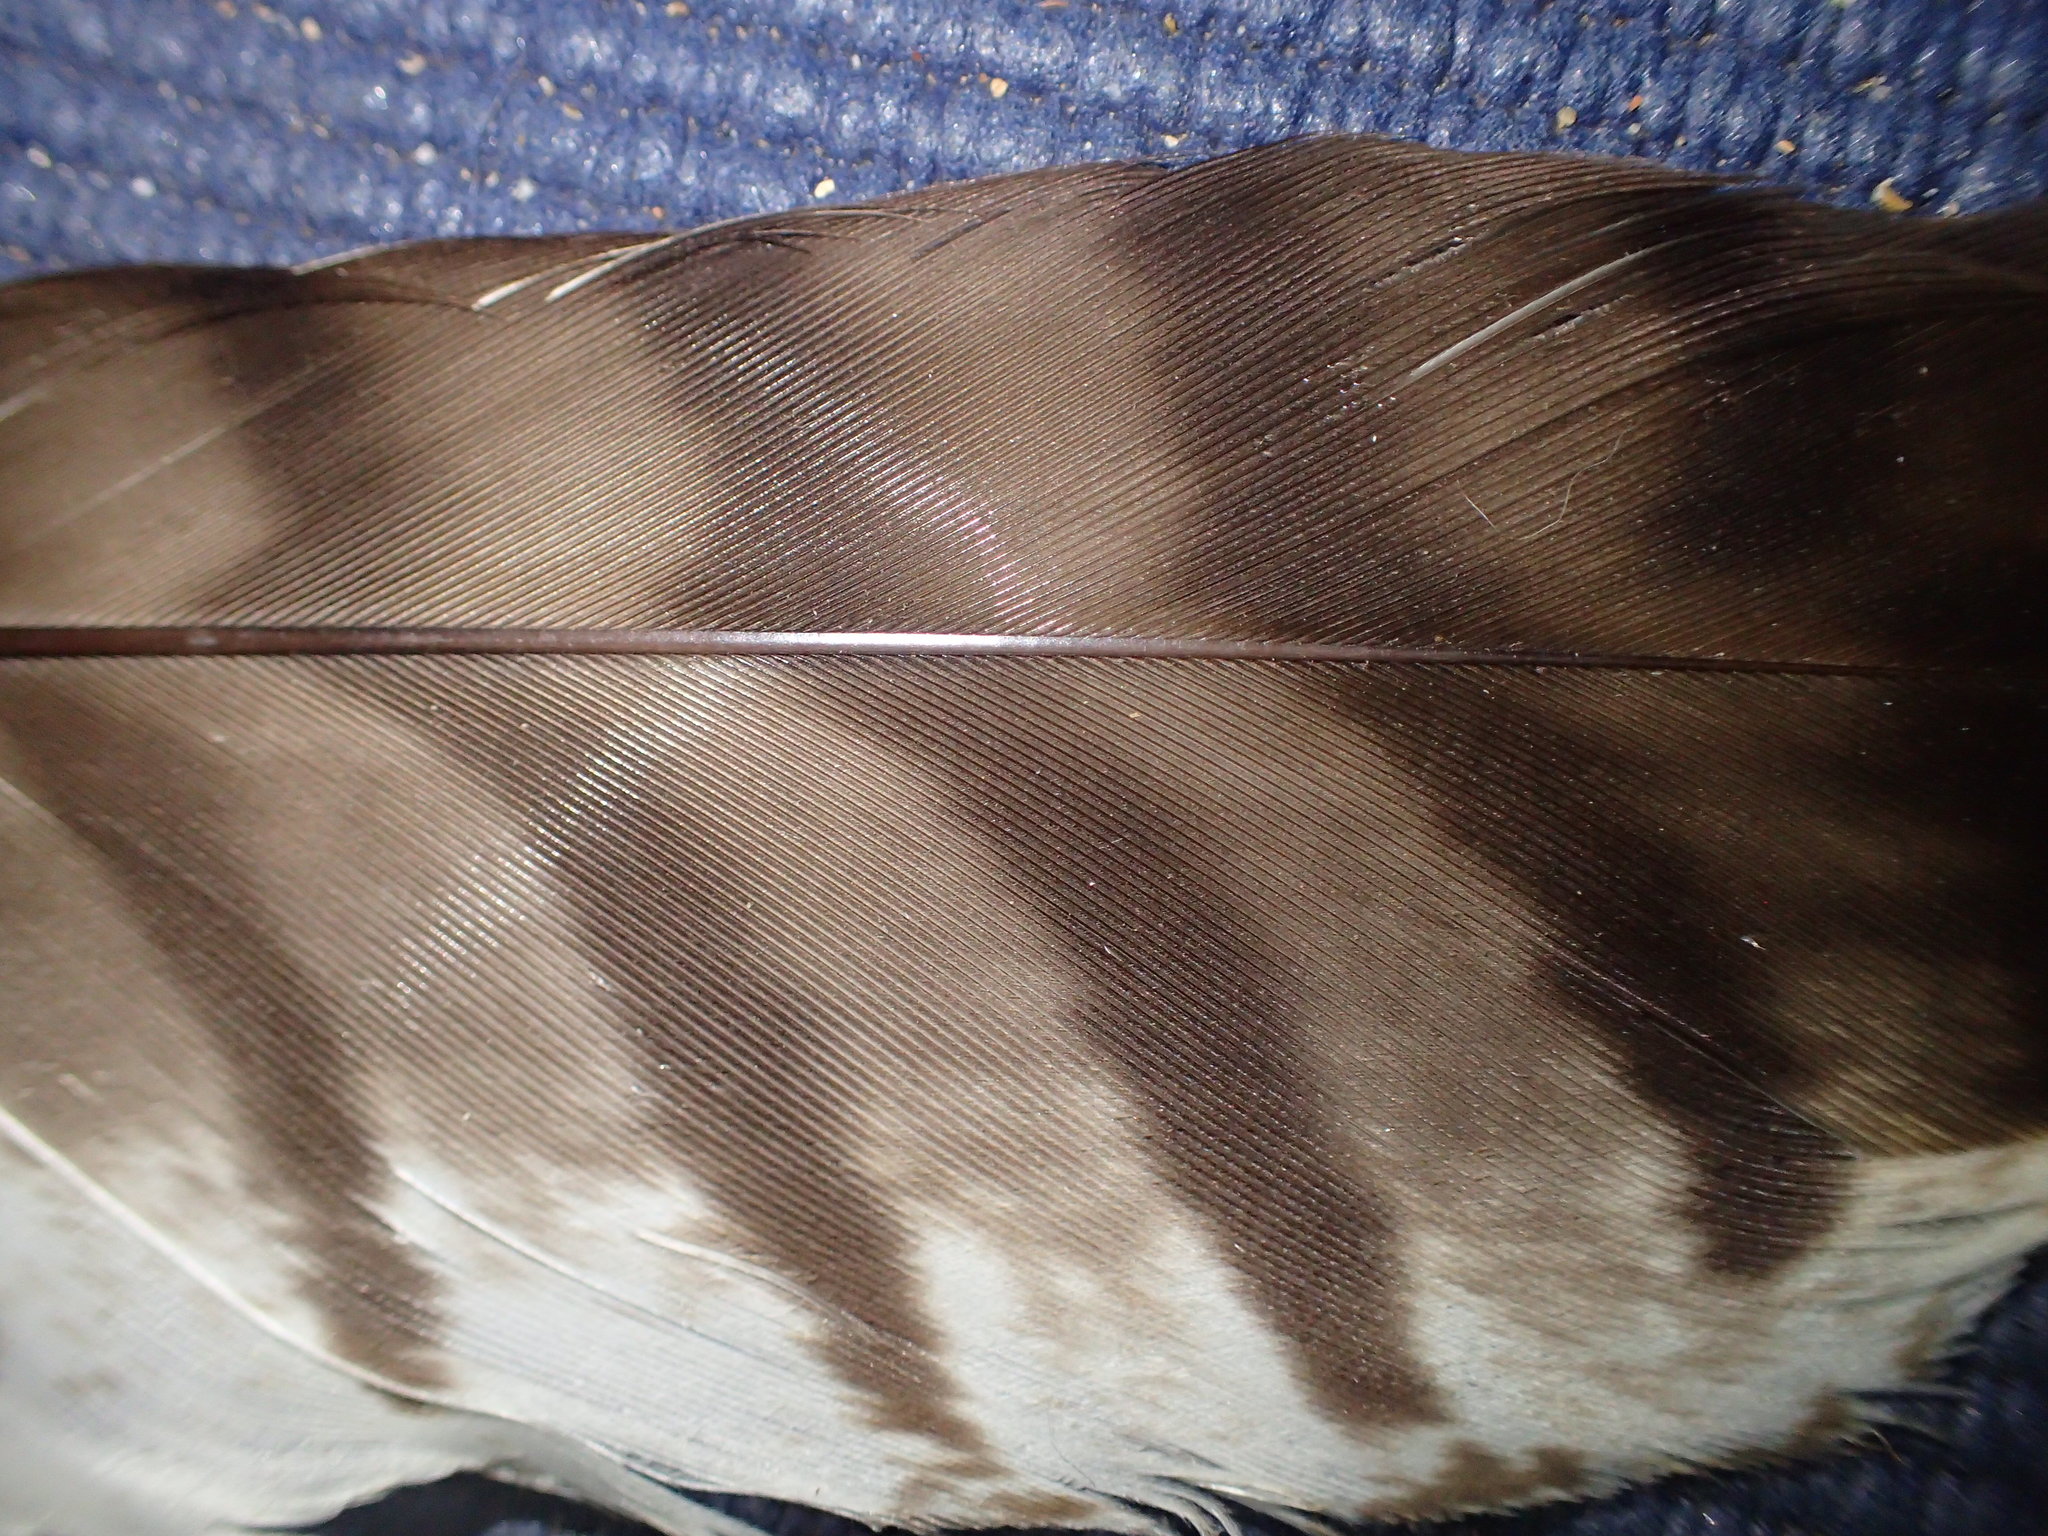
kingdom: Animalia
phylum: Chordata
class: Aves
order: Accipitriformes
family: Accipitridae
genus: Buteo
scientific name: Buteo jamaicensis
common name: Red-tailed hawk
